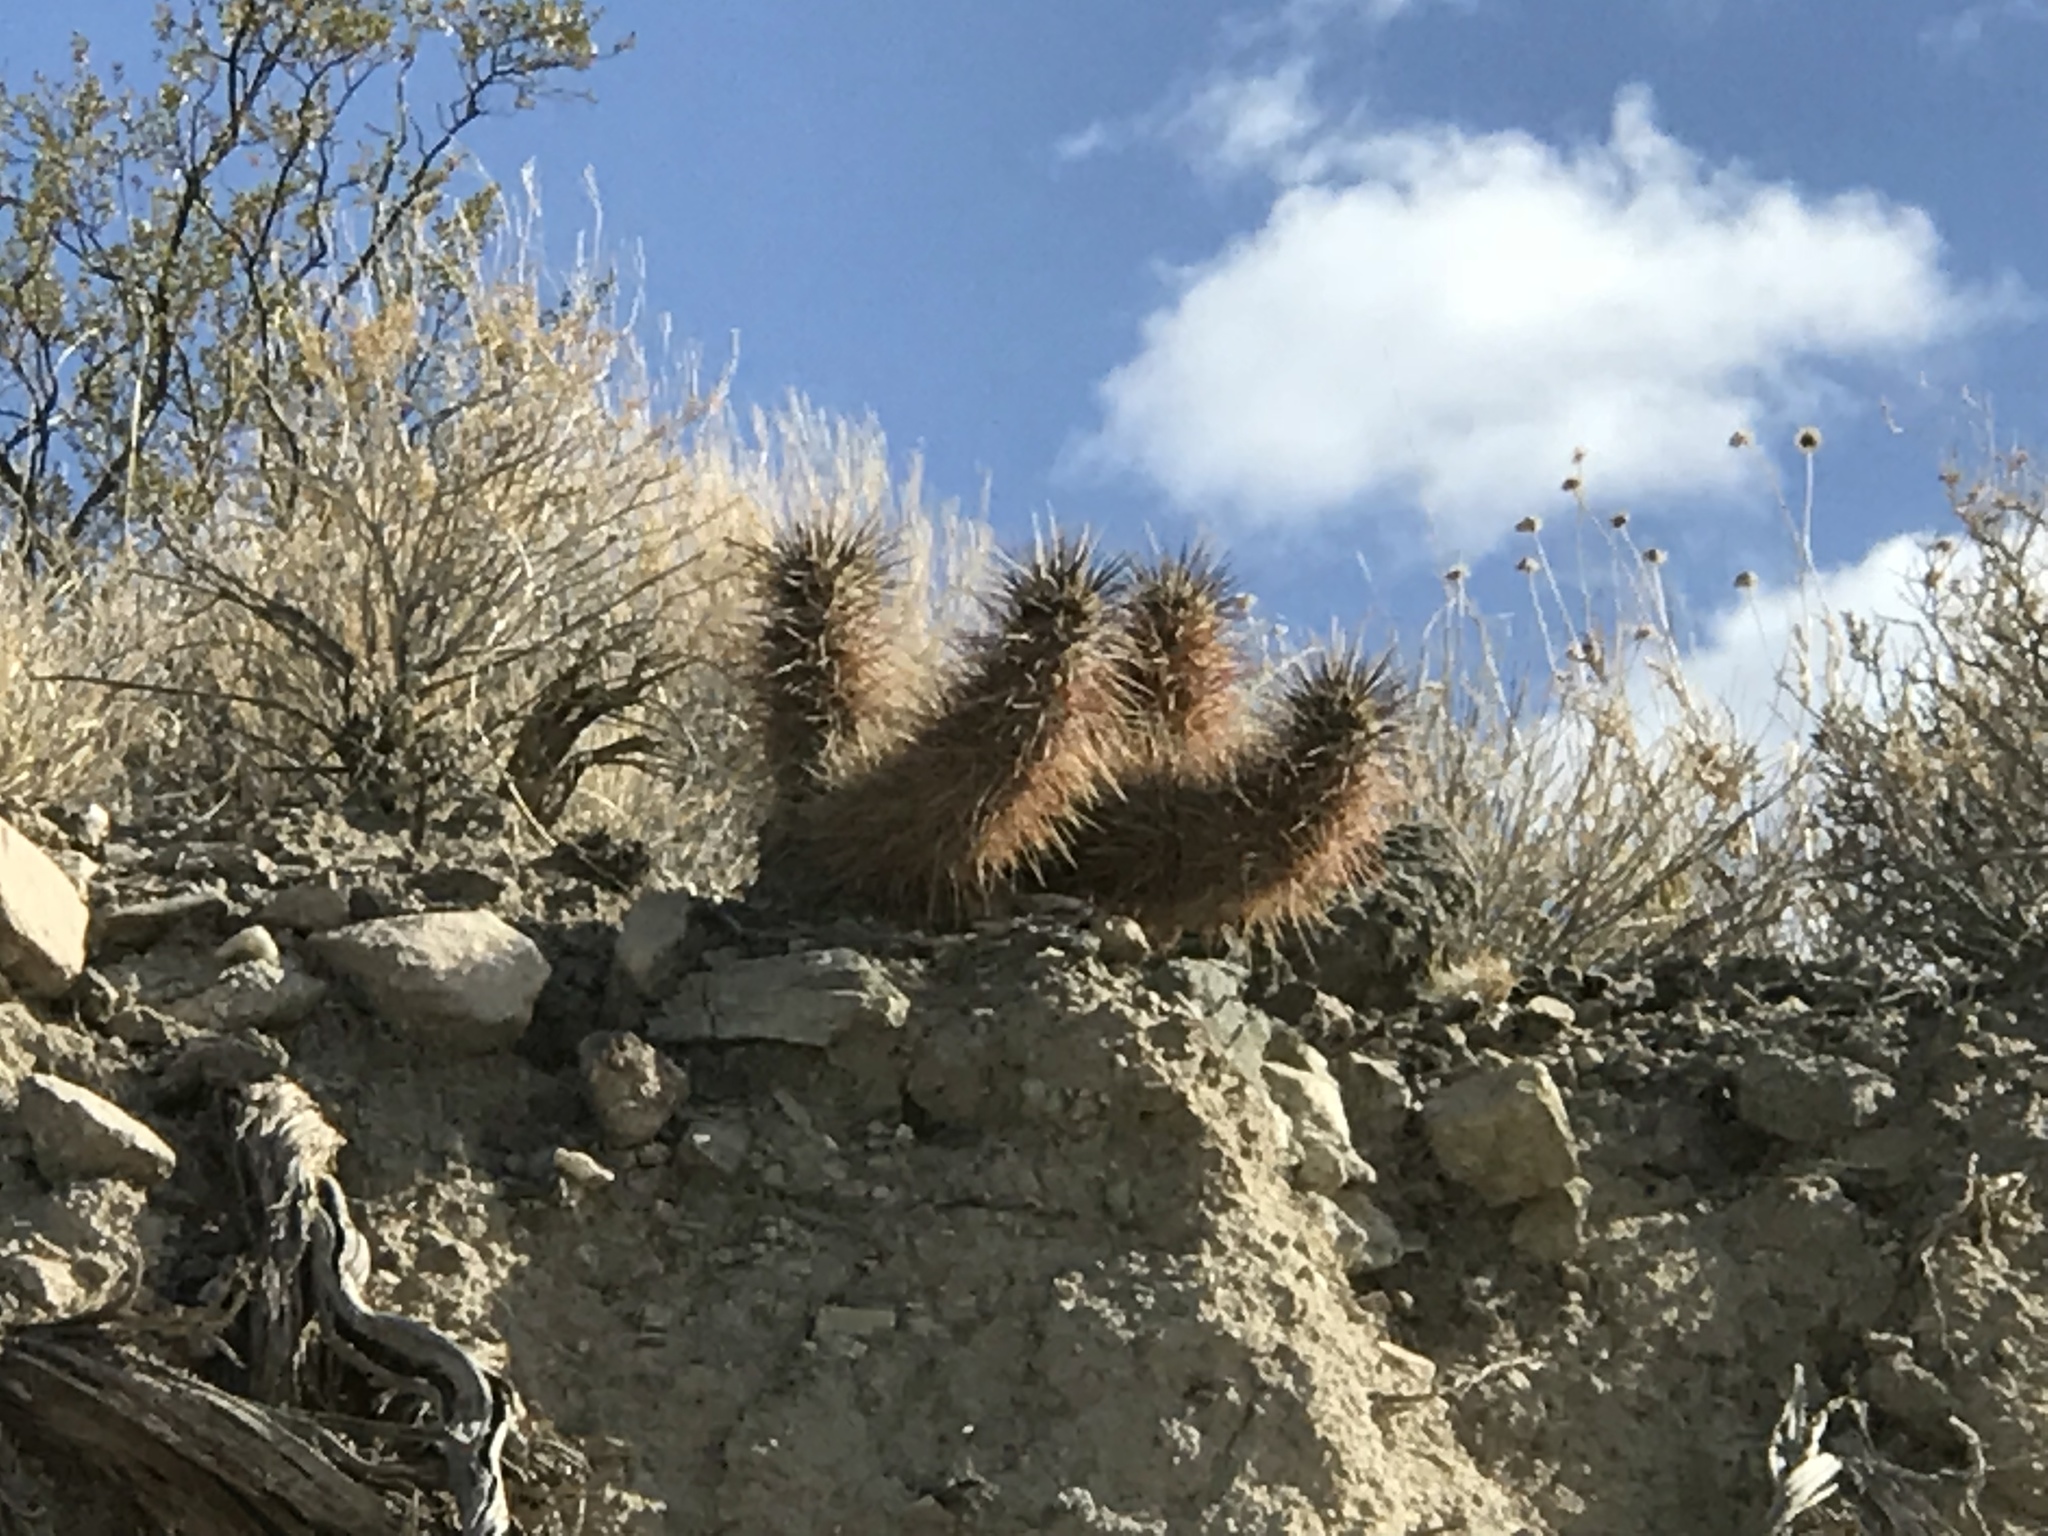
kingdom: Plantae
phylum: Tracheophyta
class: Magnoliopsida
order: Caryophyllales
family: Cactaceae
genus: Echinocereus
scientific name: Echinocereus engelmannii
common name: Engelmann's hedgehog cactus
